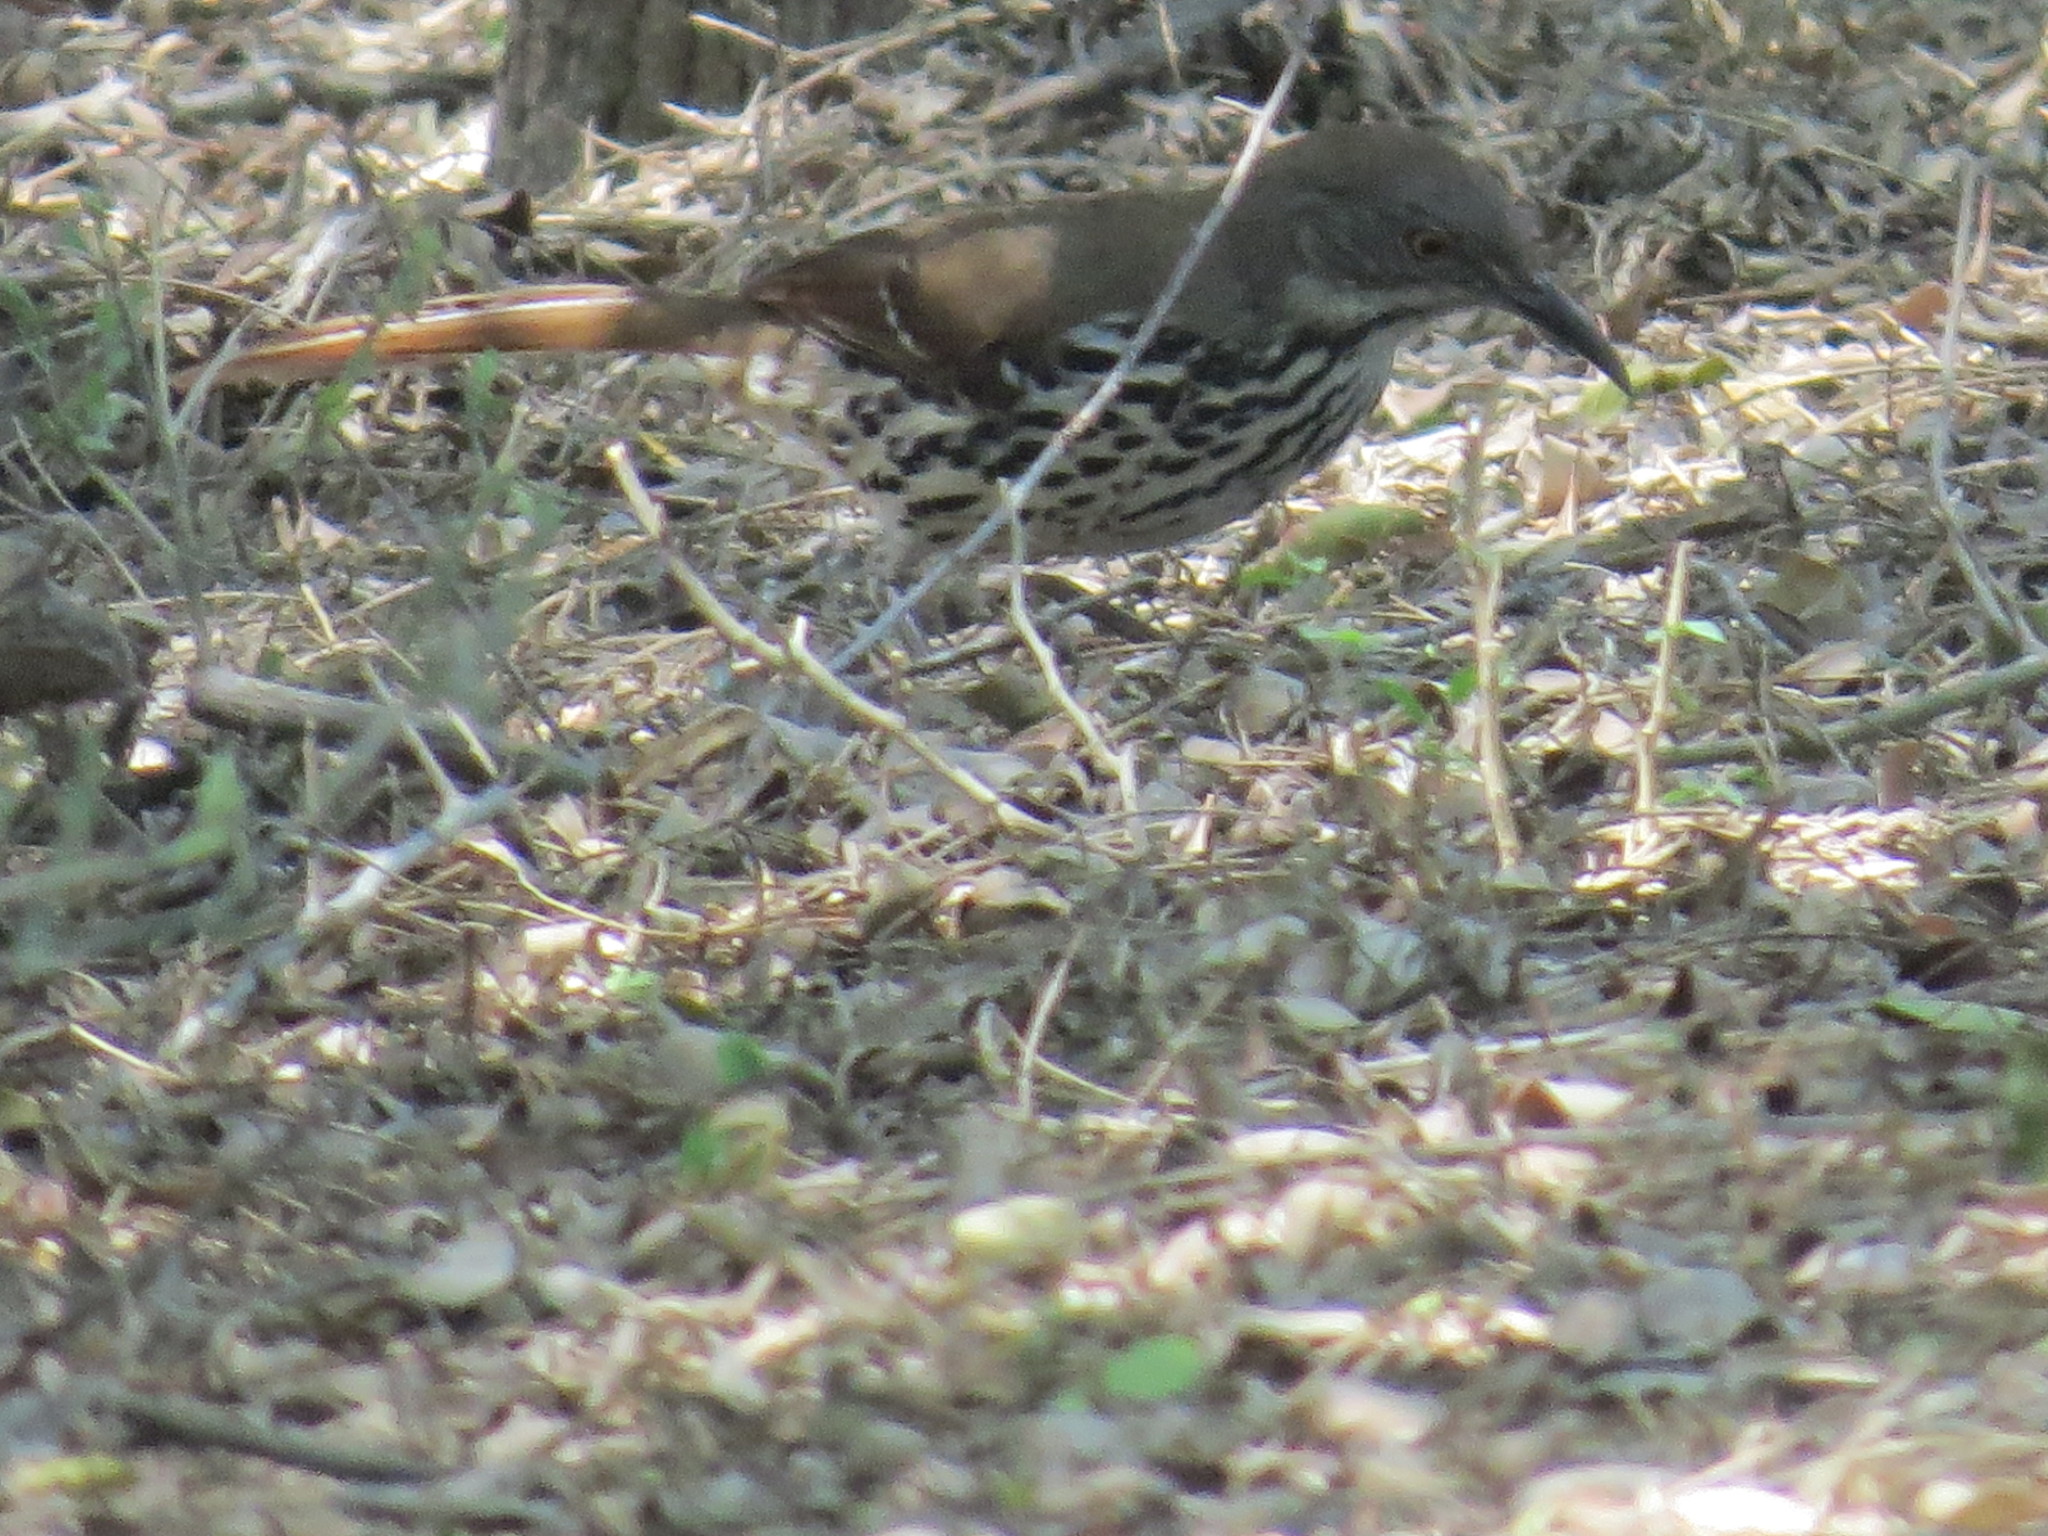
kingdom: Animalia
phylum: Chordata
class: Aves
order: Passeriformes
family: Mimidae
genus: Toxostoma
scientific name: Toxostoma longirostre
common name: Long-billed thrasher
